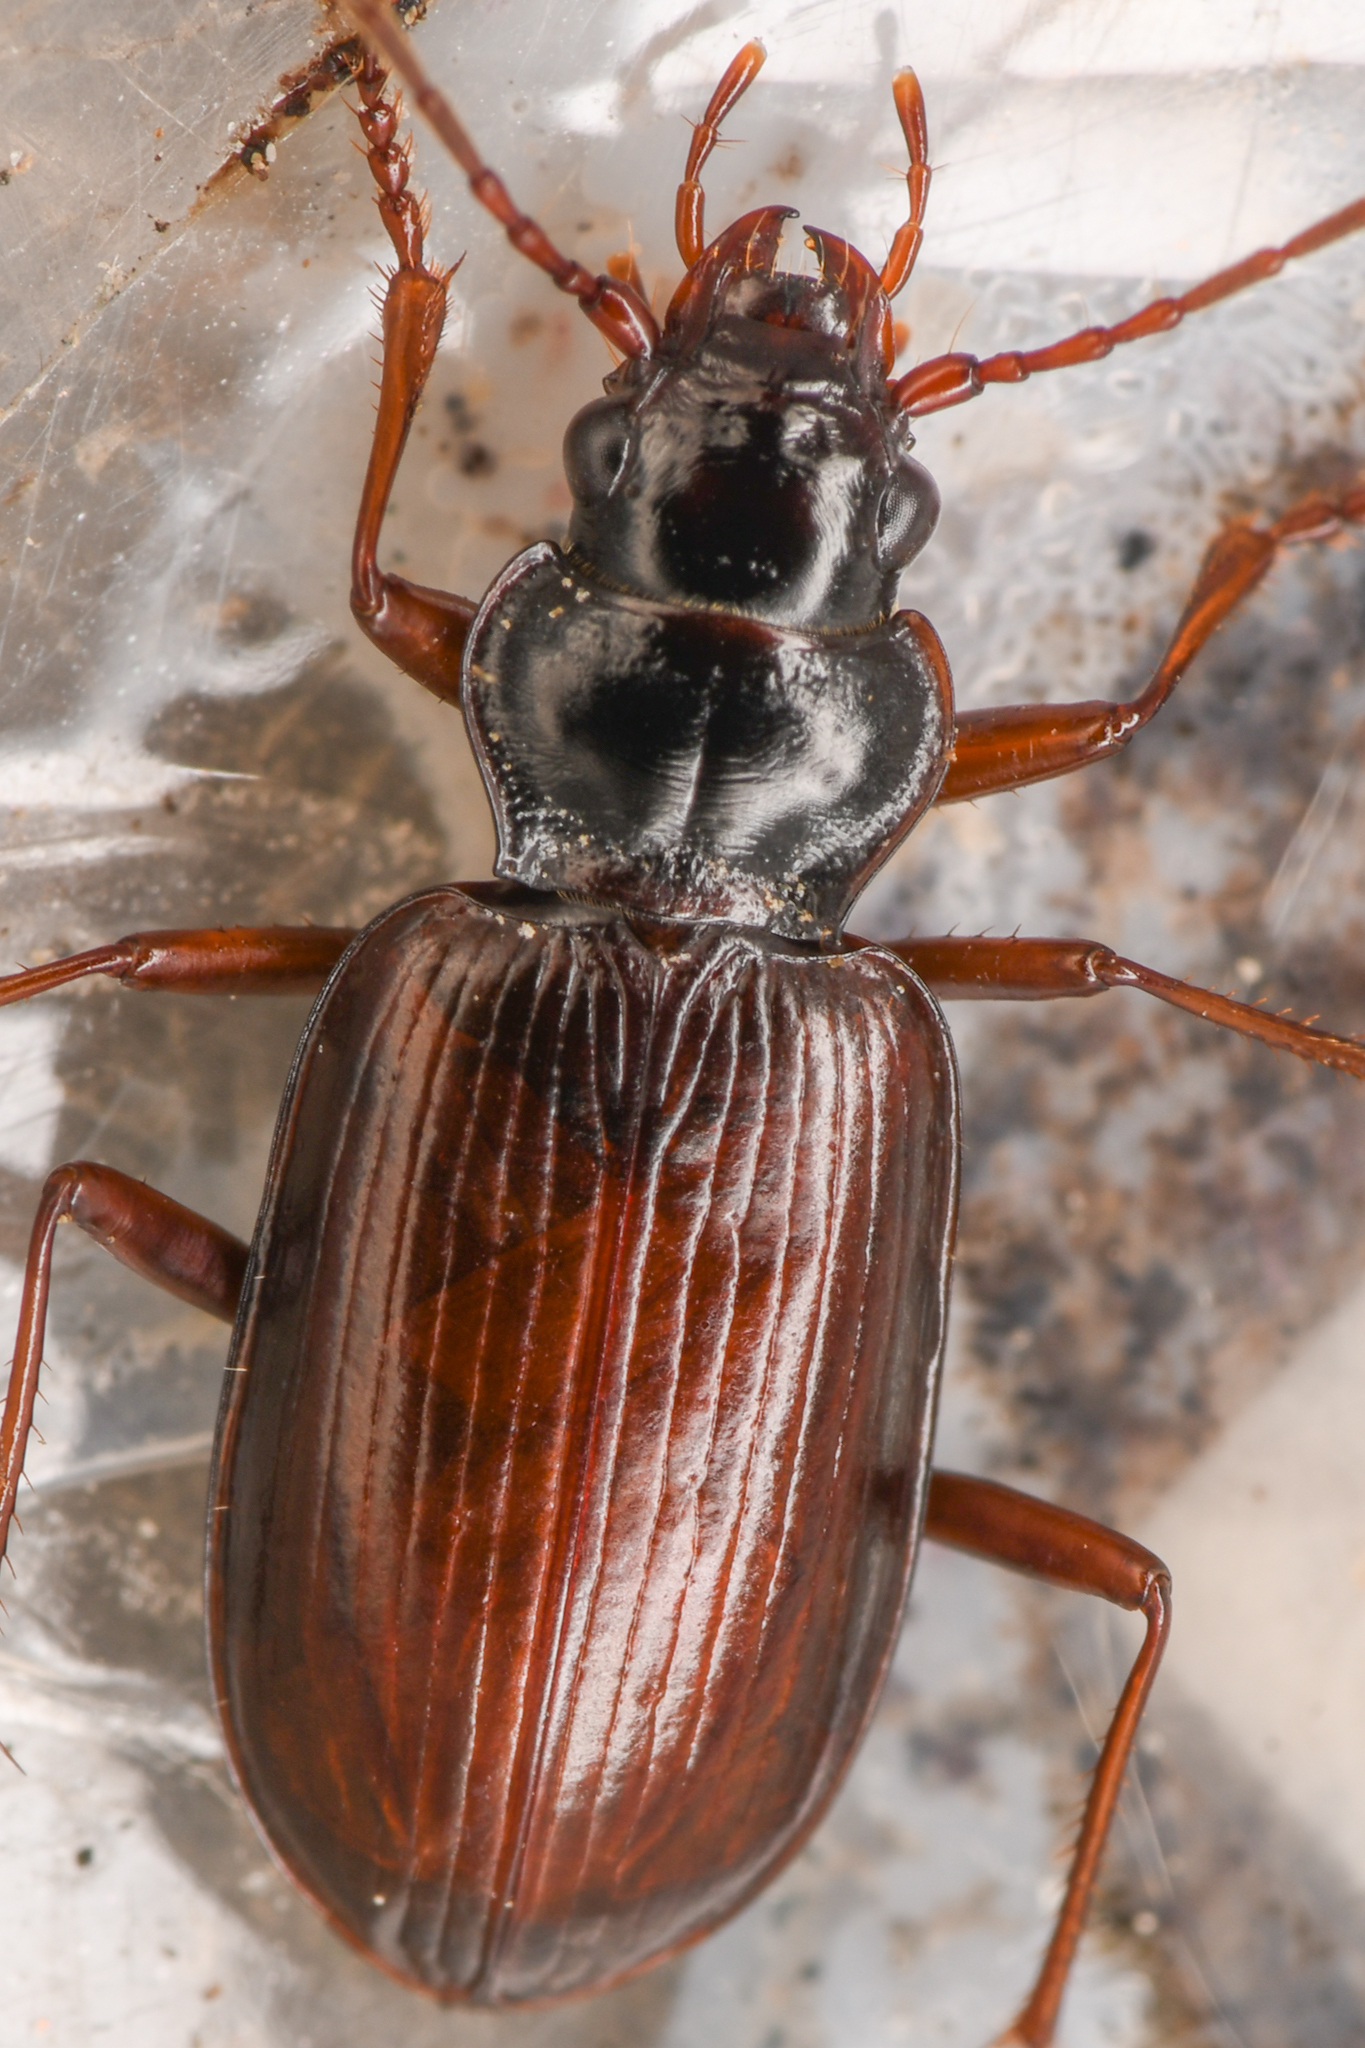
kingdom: Animalia
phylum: Arthropoda
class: Insecta
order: Coleoptera
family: Carabidae
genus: Nebria
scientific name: Nebria intermedia
